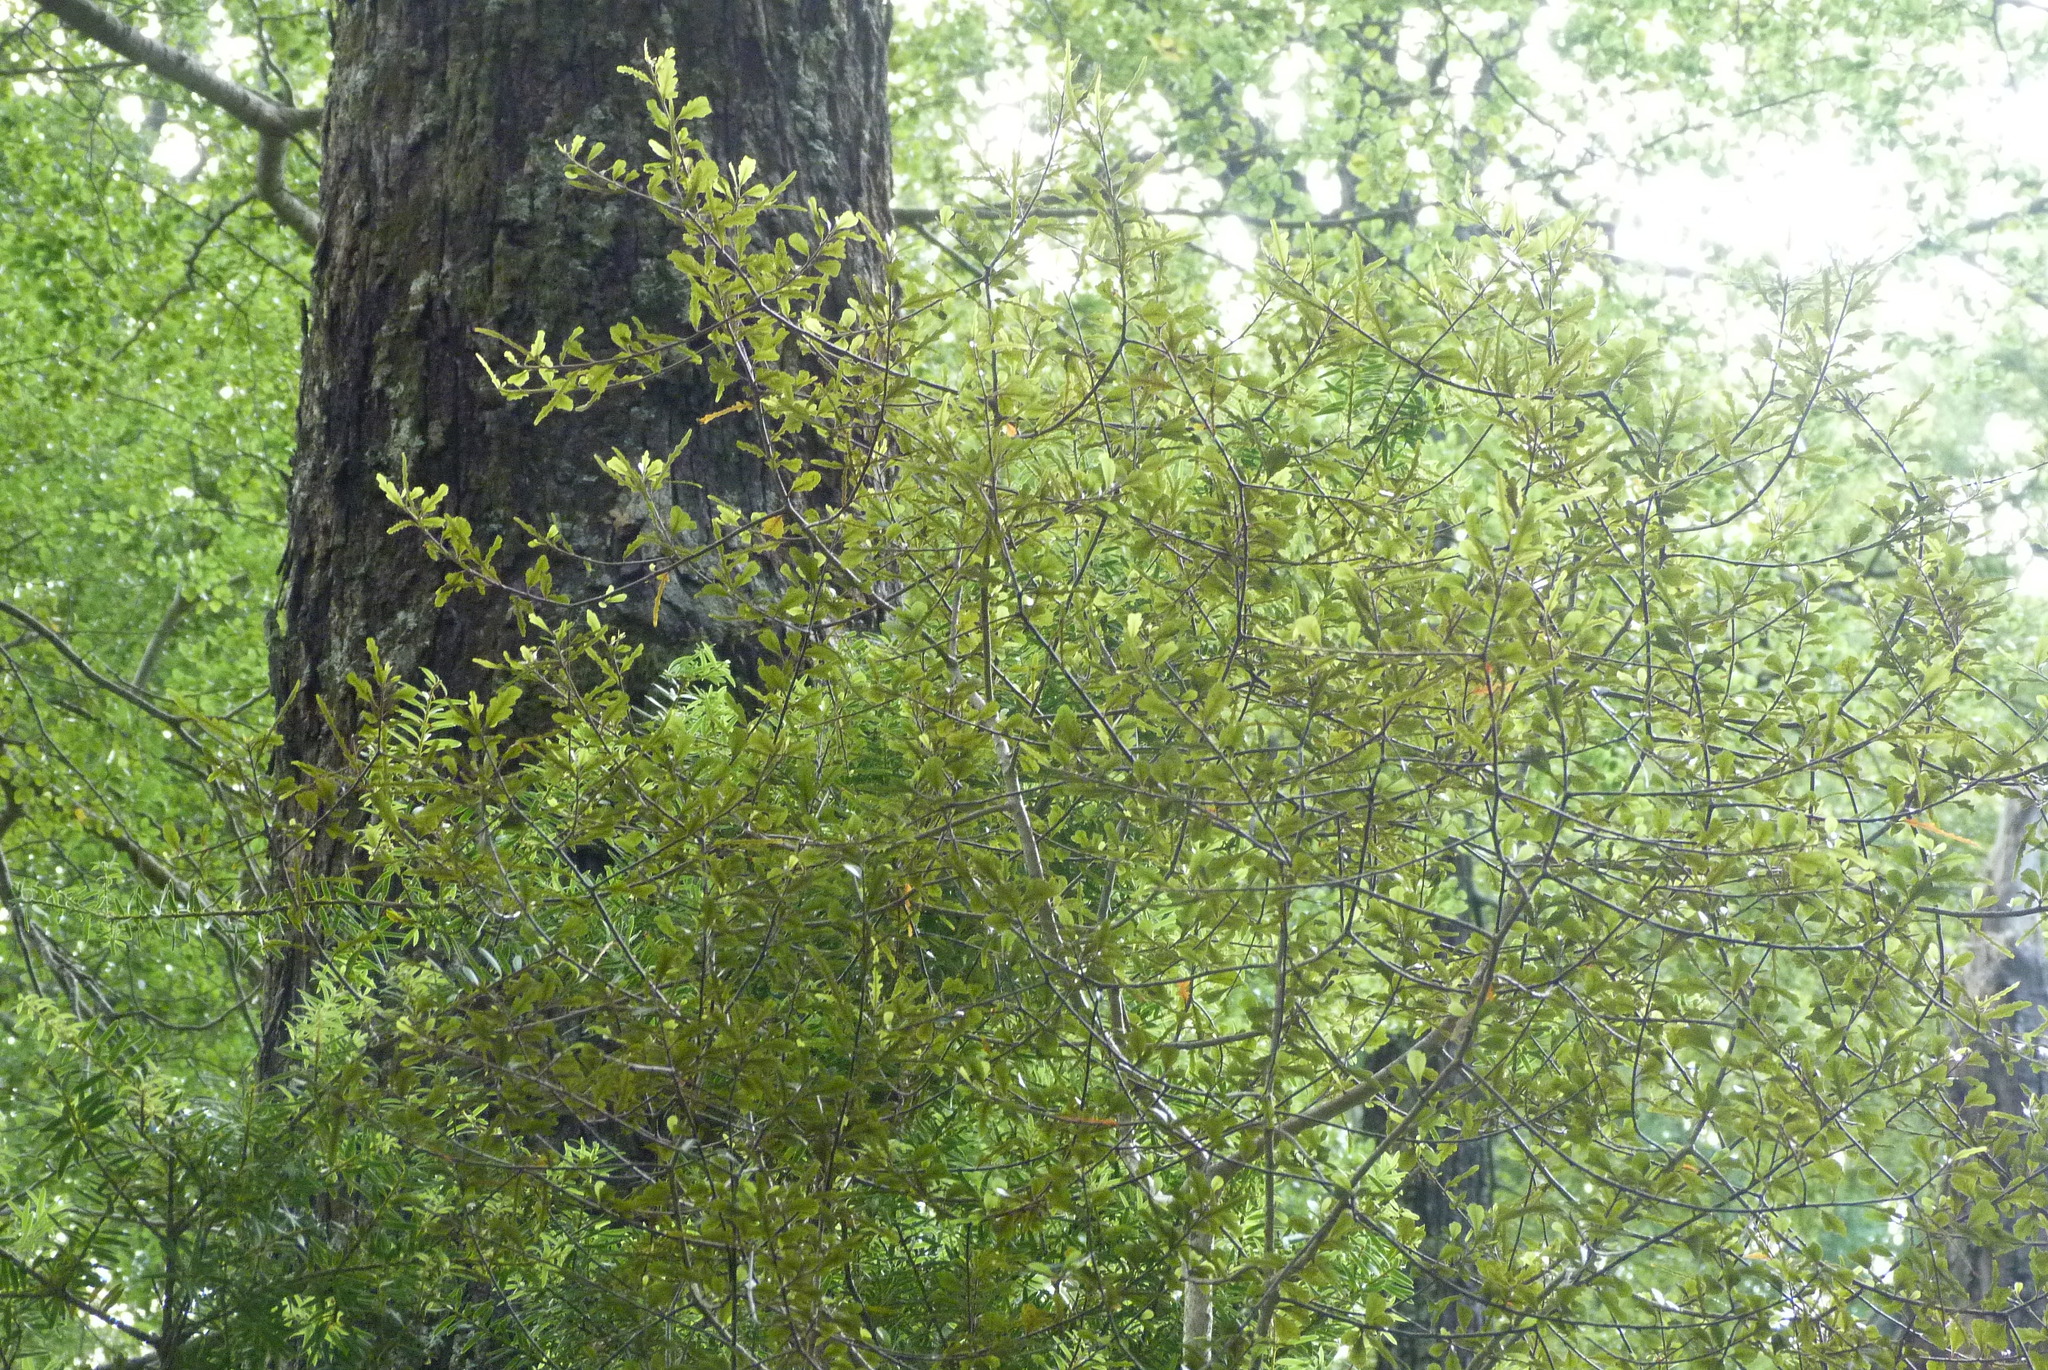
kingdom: Plantae
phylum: Tracheophyta
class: Magnoliopsida
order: Oxalidales
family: Elaeocarpaceae
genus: Elaeocarpus
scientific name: Elaeocarpus hookerianus
